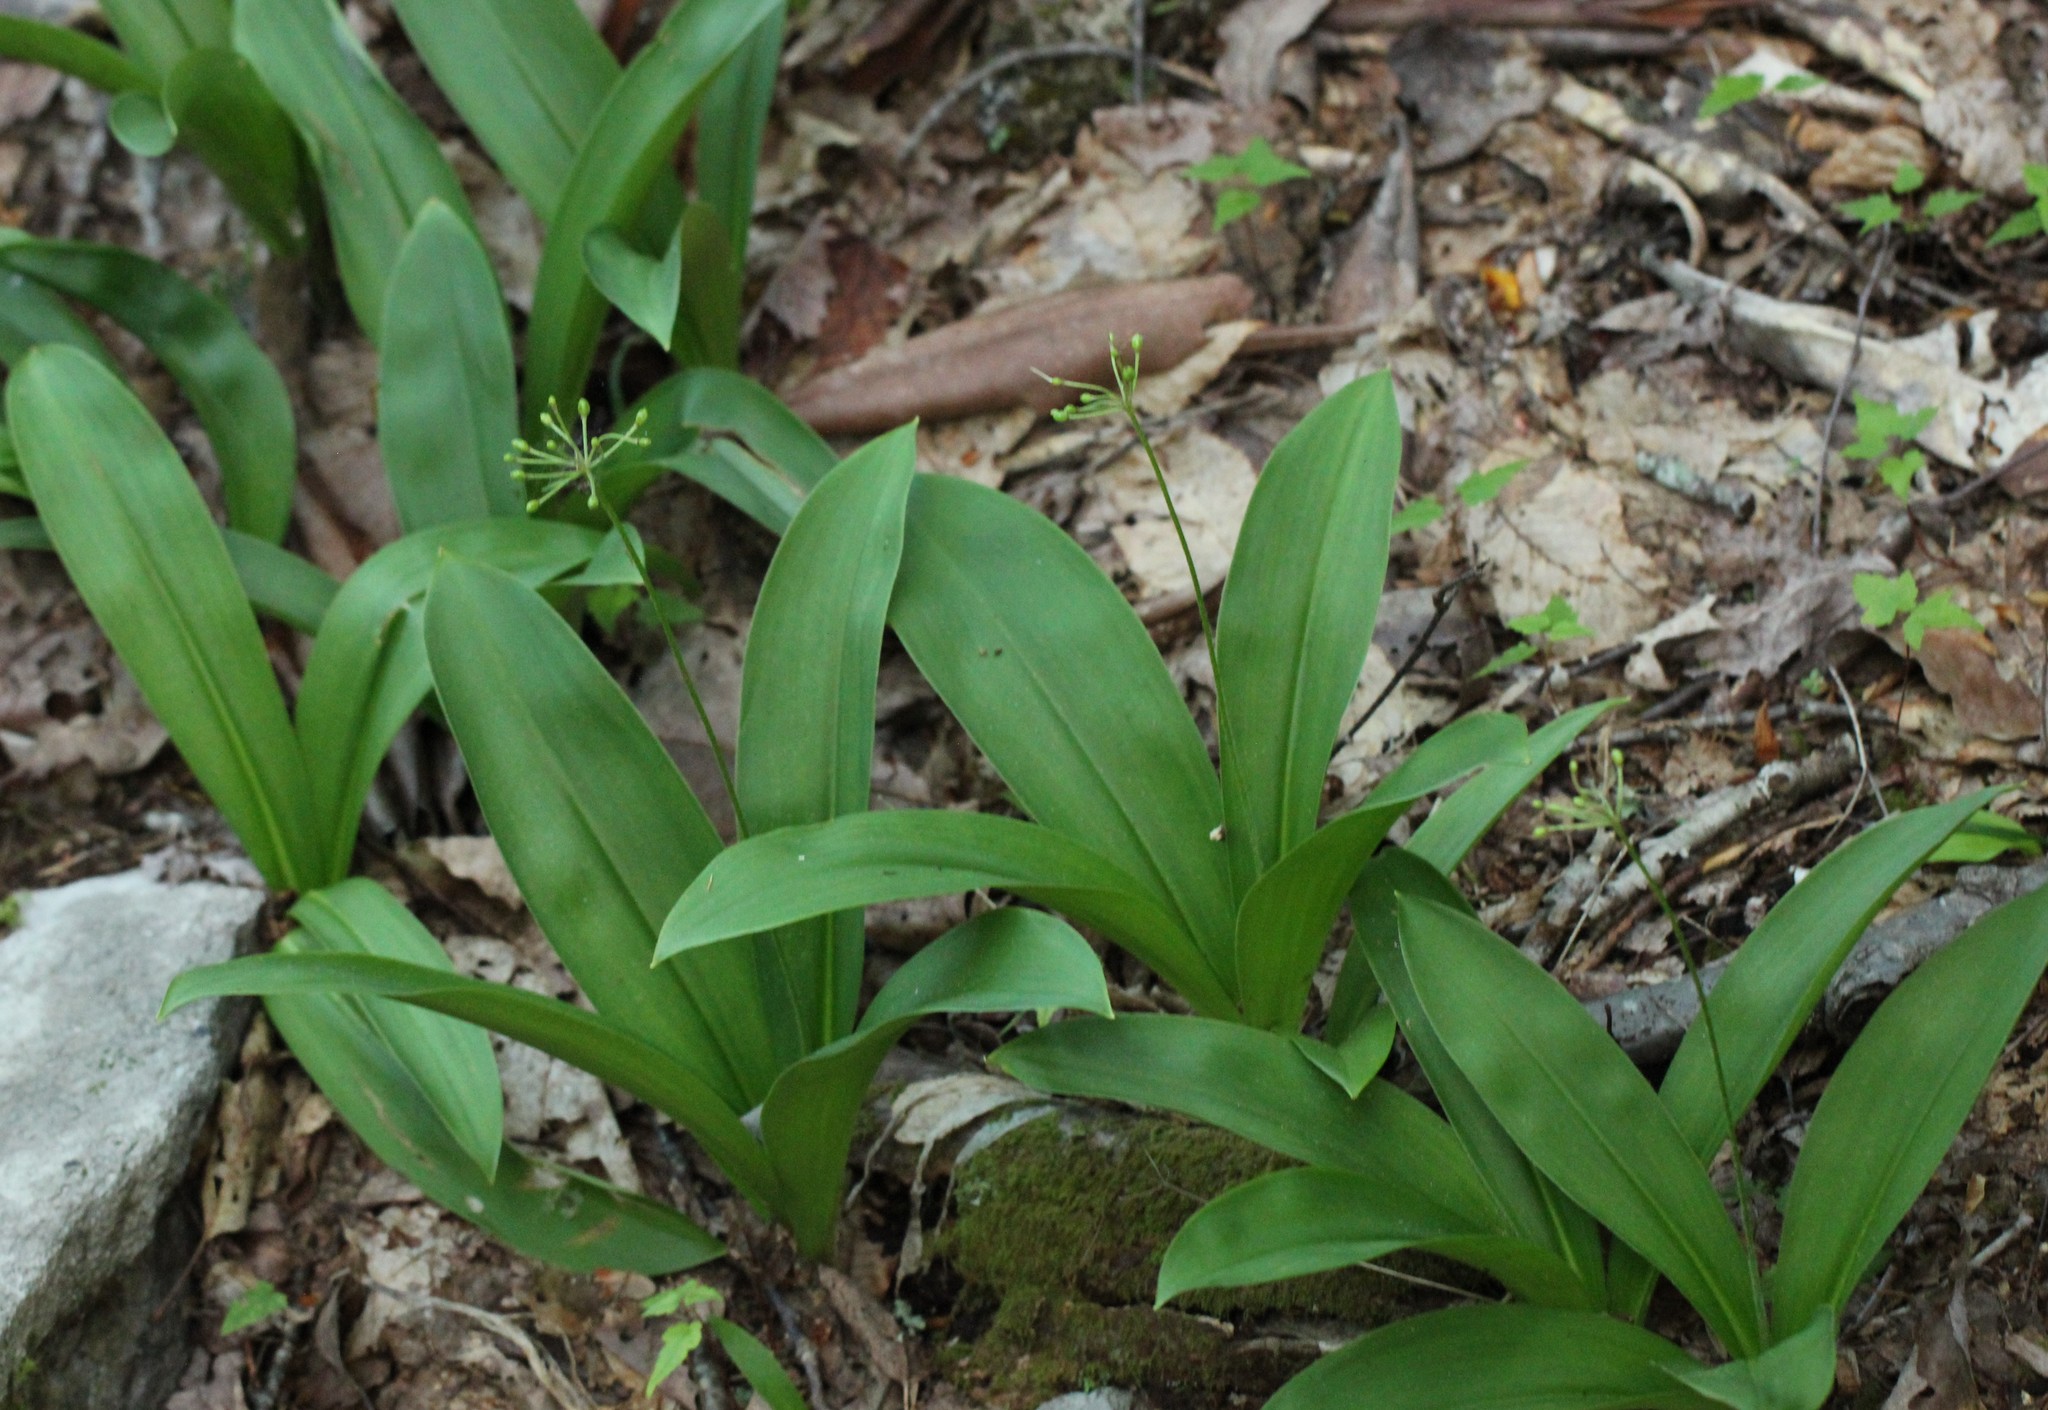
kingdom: Plantae
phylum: Tracheophyta
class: Liliopsida
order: Liliales
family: Liliaceae
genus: Clintonia
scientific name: Clintonia umbellulata
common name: Speckle wood-lily
